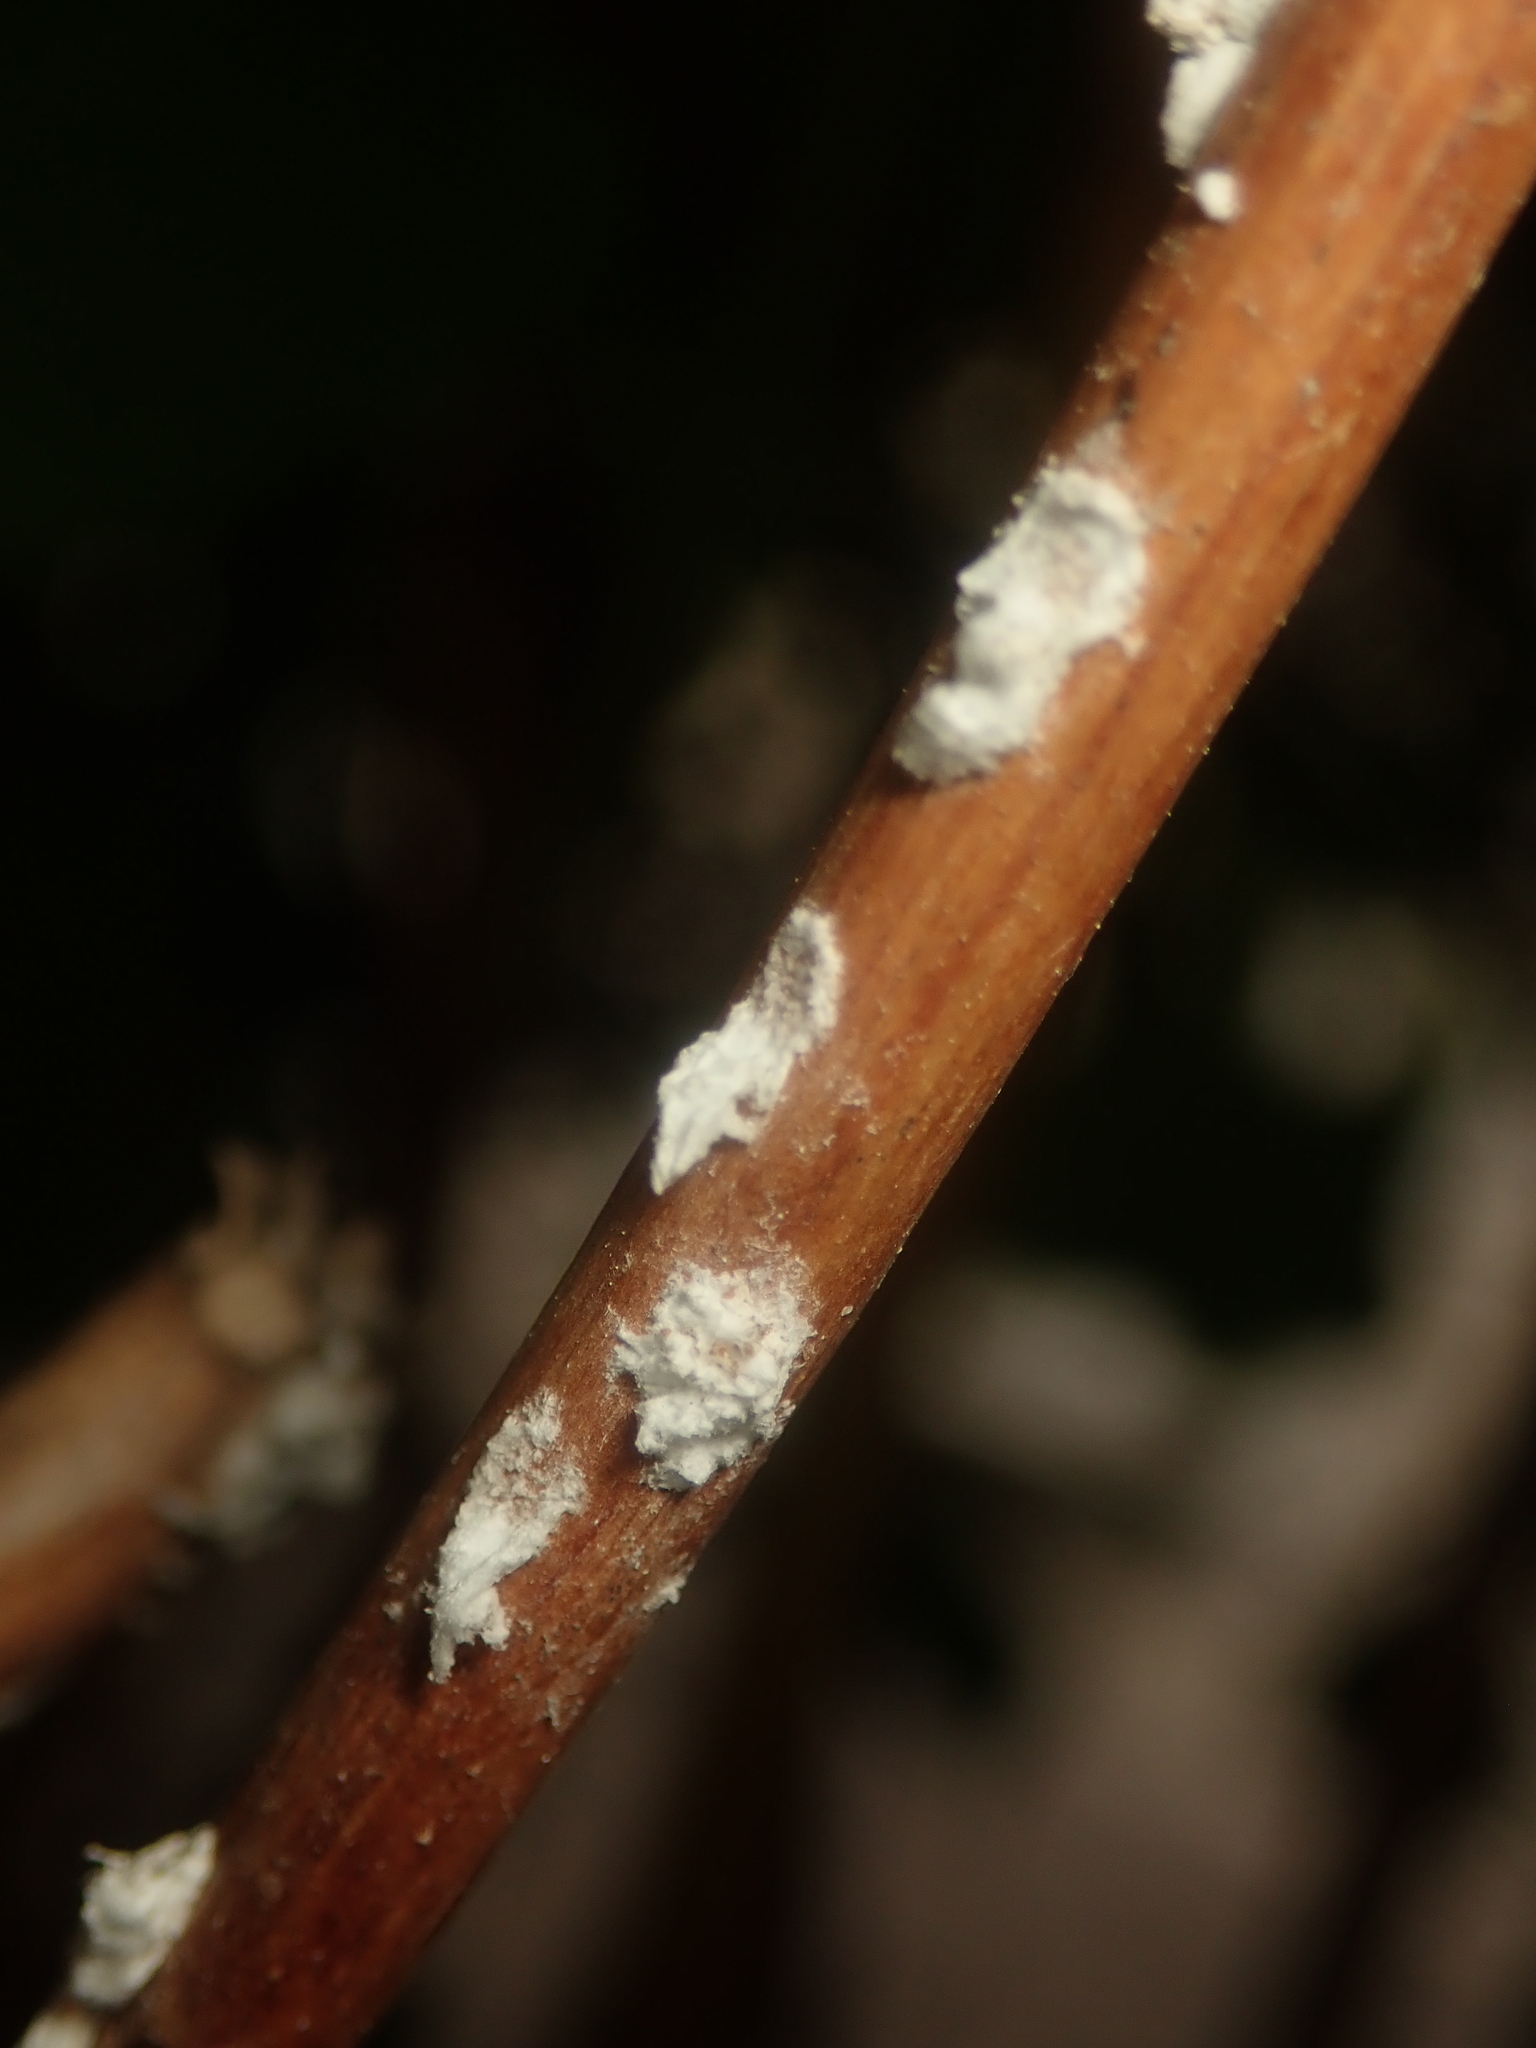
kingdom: Animalia
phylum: Arthropoda
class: Insecta
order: Hemiptera
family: Coccidae
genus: Pulvinaria
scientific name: Pulvinaria hydrangeae
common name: Cottony hydrangea scale
